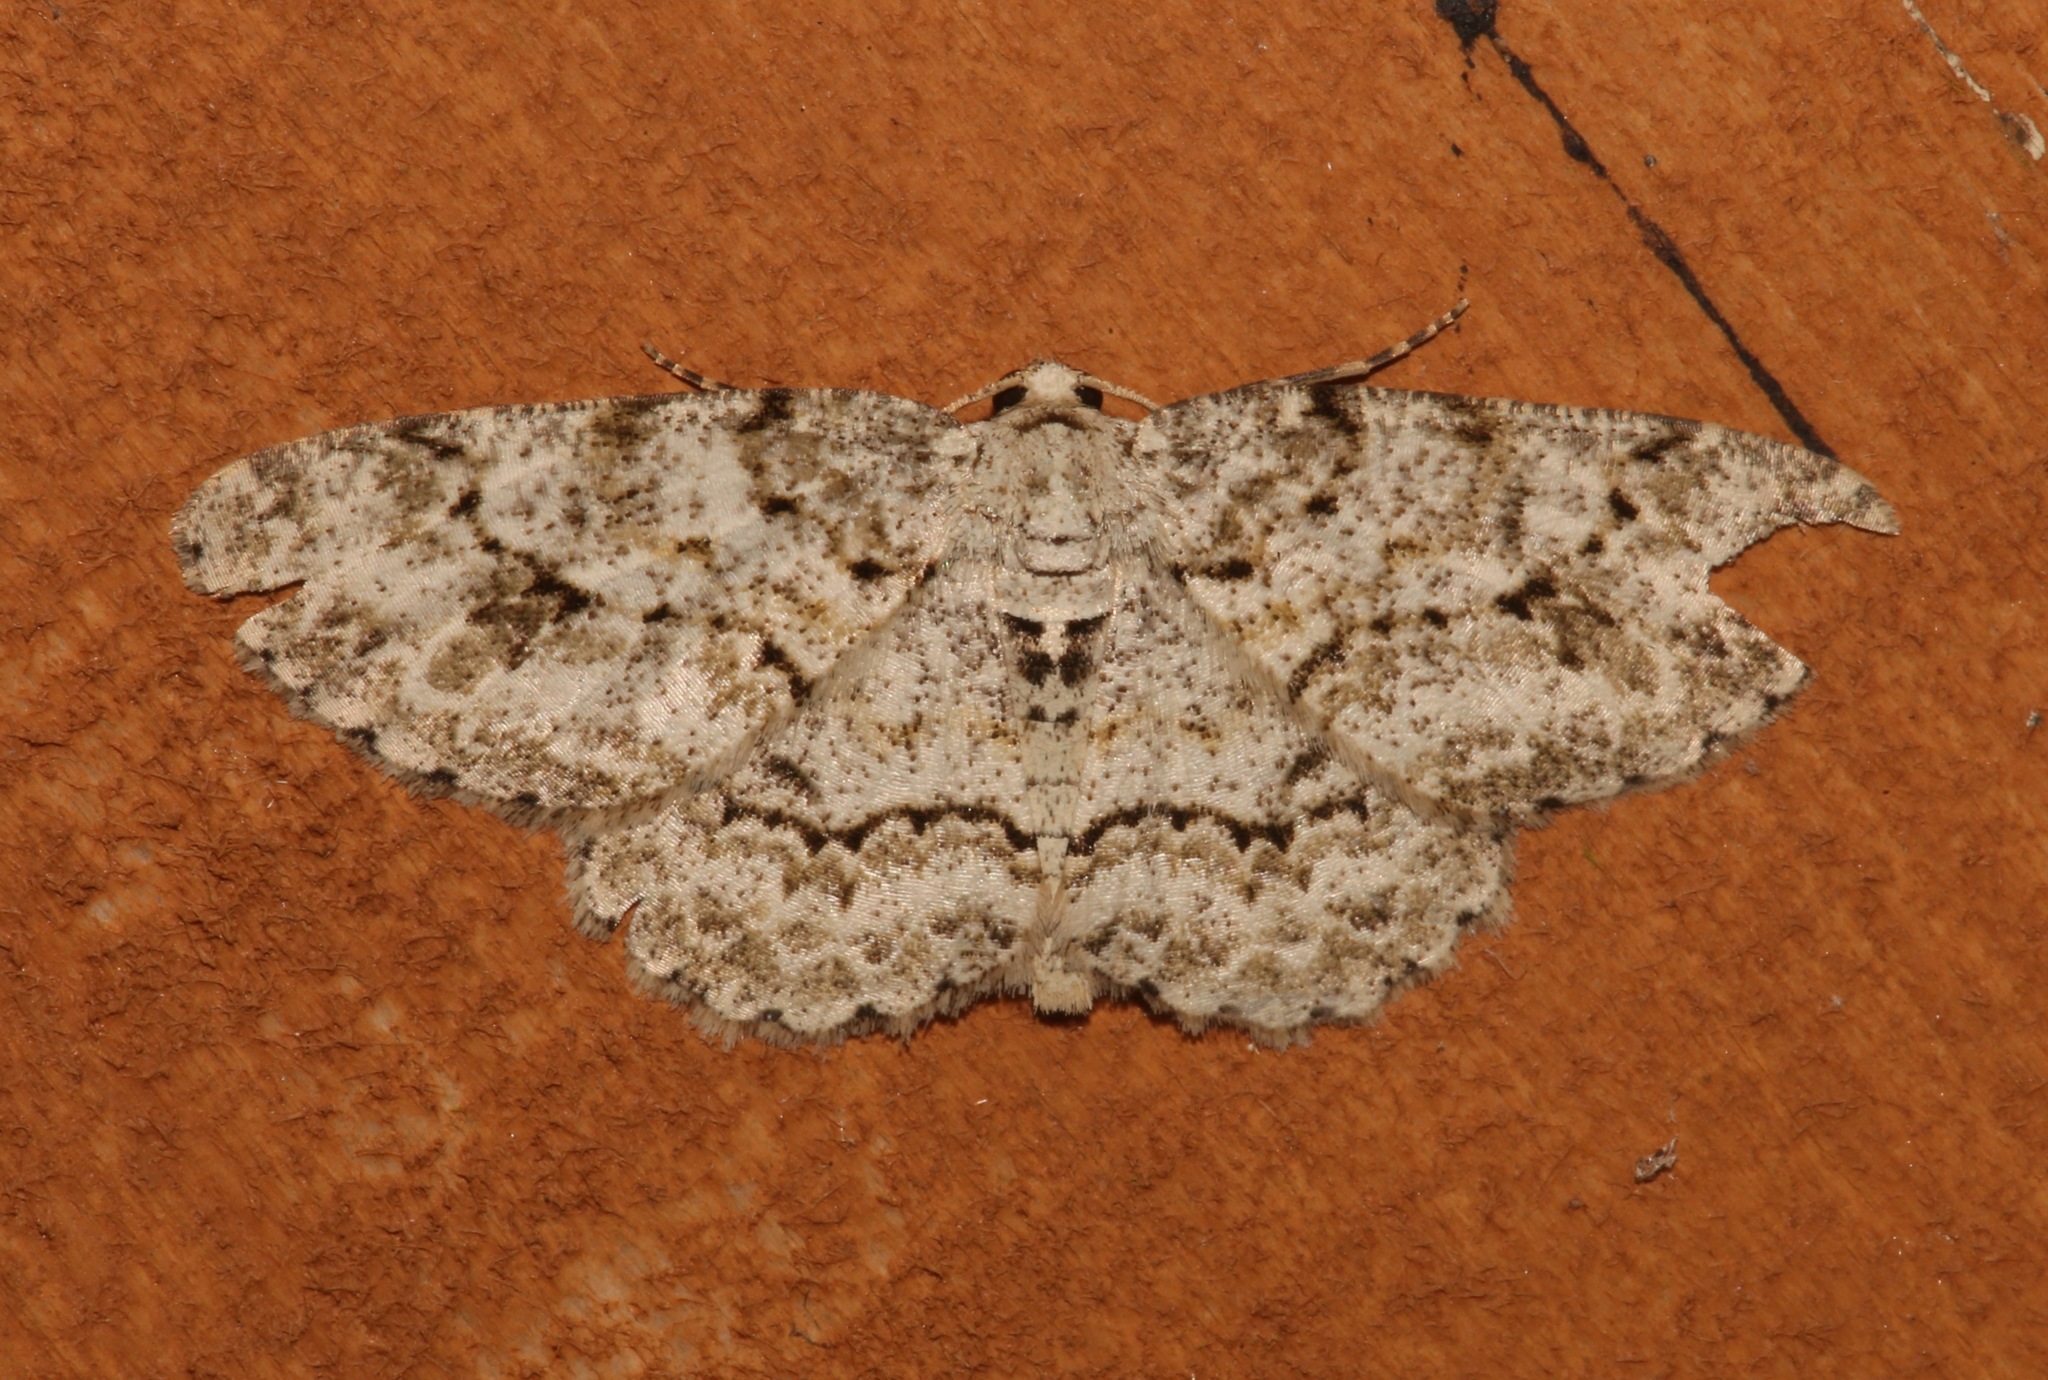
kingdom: Animalia
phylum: Arthropoda
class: Insecta
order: Lepidoptera
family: Geometridae
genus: Ectropis
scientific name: Ectropis crepuscularia
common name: Engrailed
